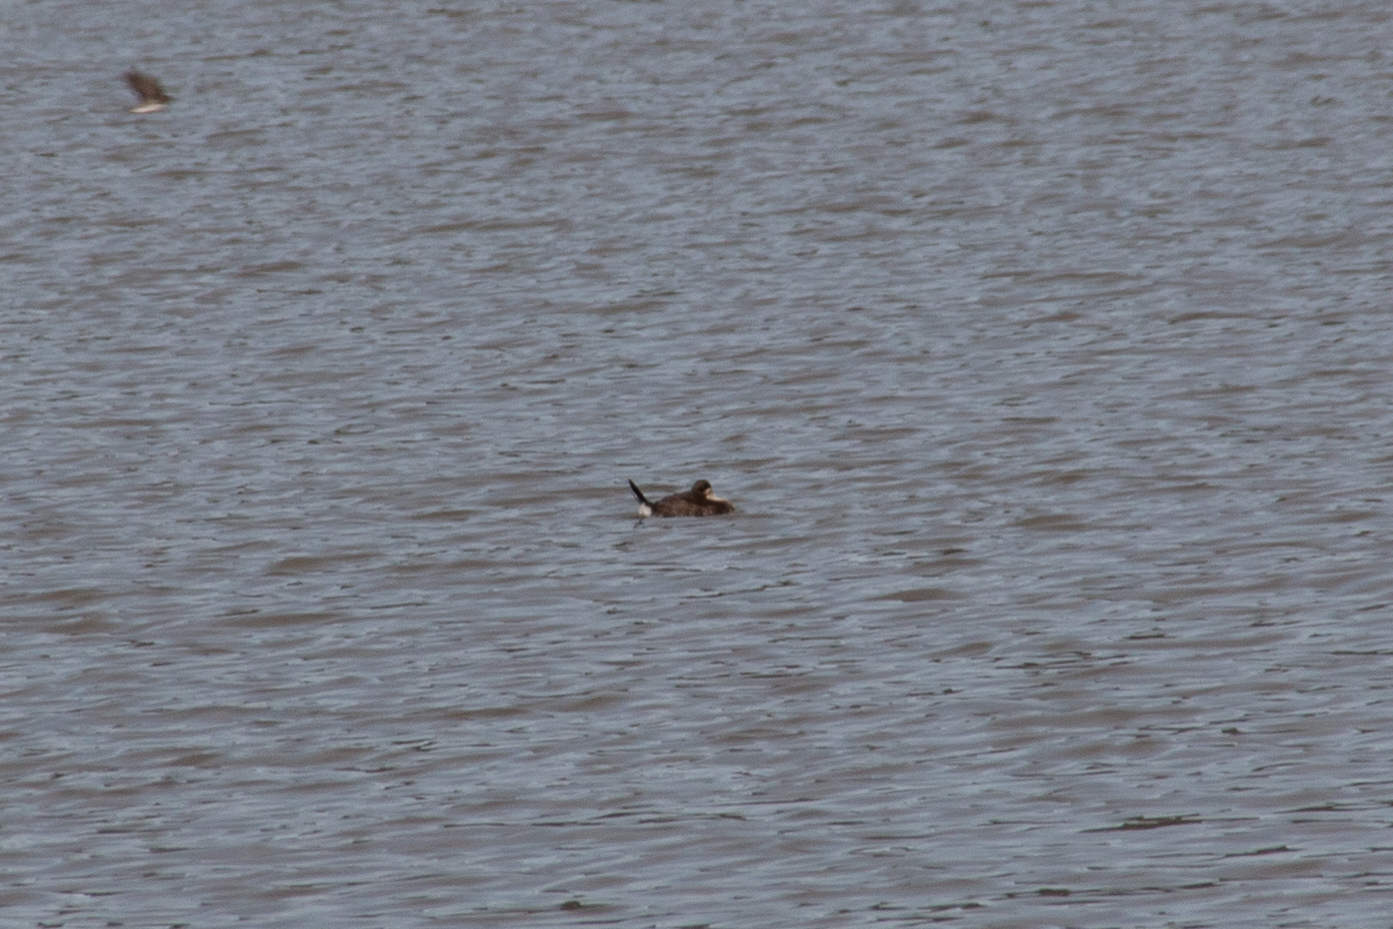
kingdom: Animalia
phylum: Chordata
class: Aves
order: Anseriformes
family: Anatidae
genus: Oxyura
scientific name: Oxyura jamaicensis
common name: Ruddy duck
